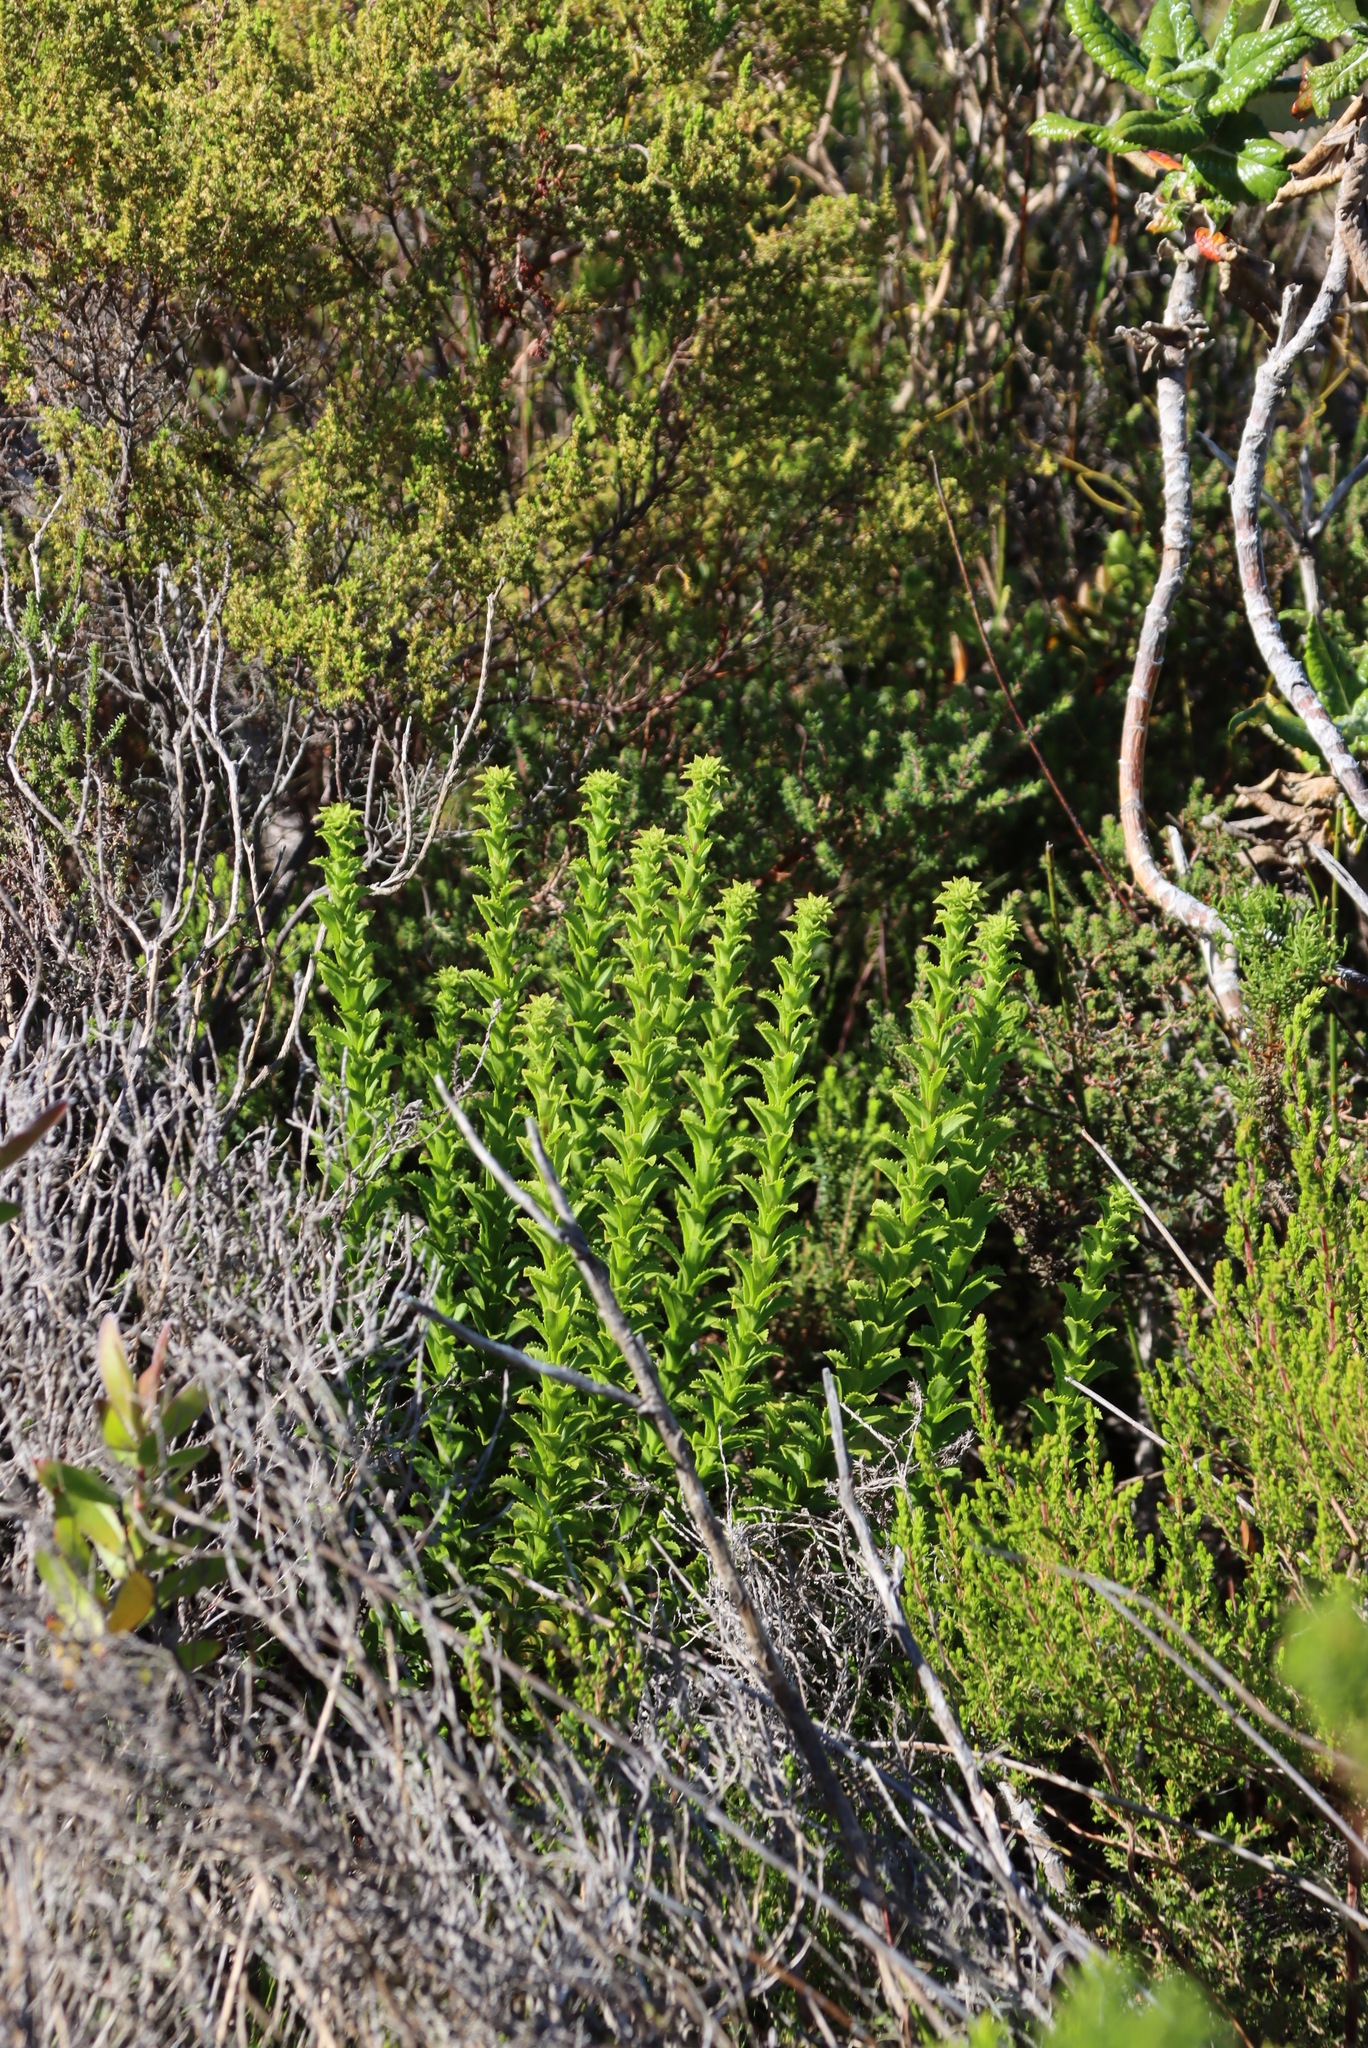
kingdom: Plantae
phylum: Tracheophyta
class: Magnoliopsida
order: Lamiales
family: Scrophulariaceae
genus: Pseudoselago
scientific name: Pseudoselago serrata
